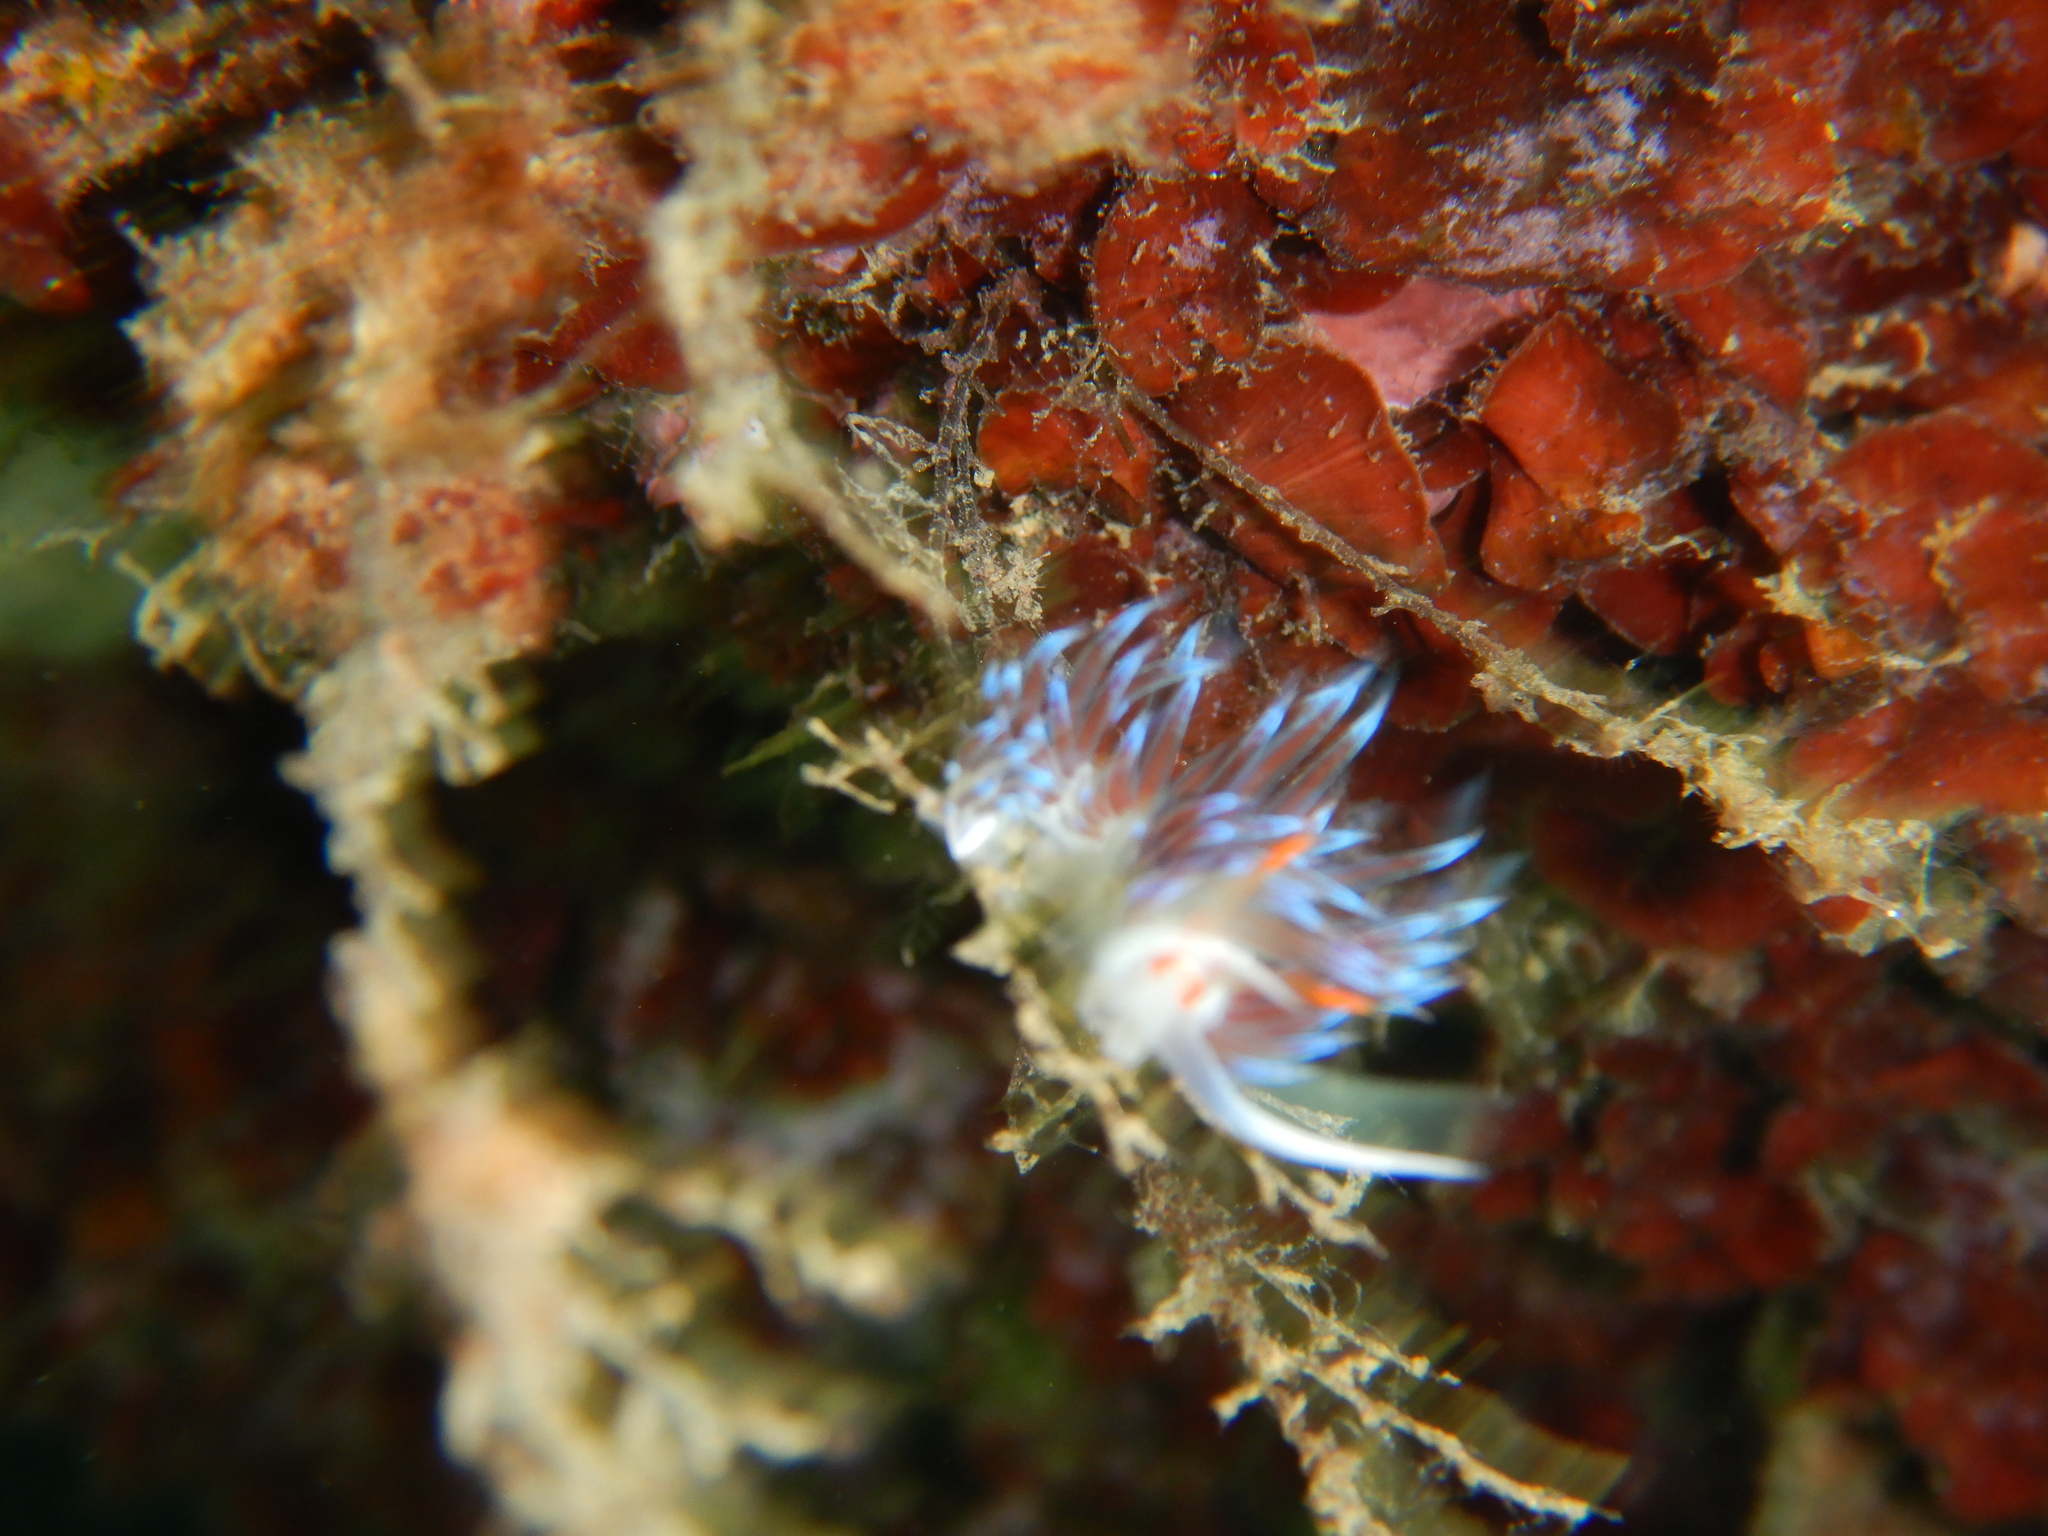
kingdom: Animalia
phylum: Mollusca
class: Gastropoda
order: Nudibranchia
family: Facelinidae
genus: Cratena
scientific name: Cratena peregrina
